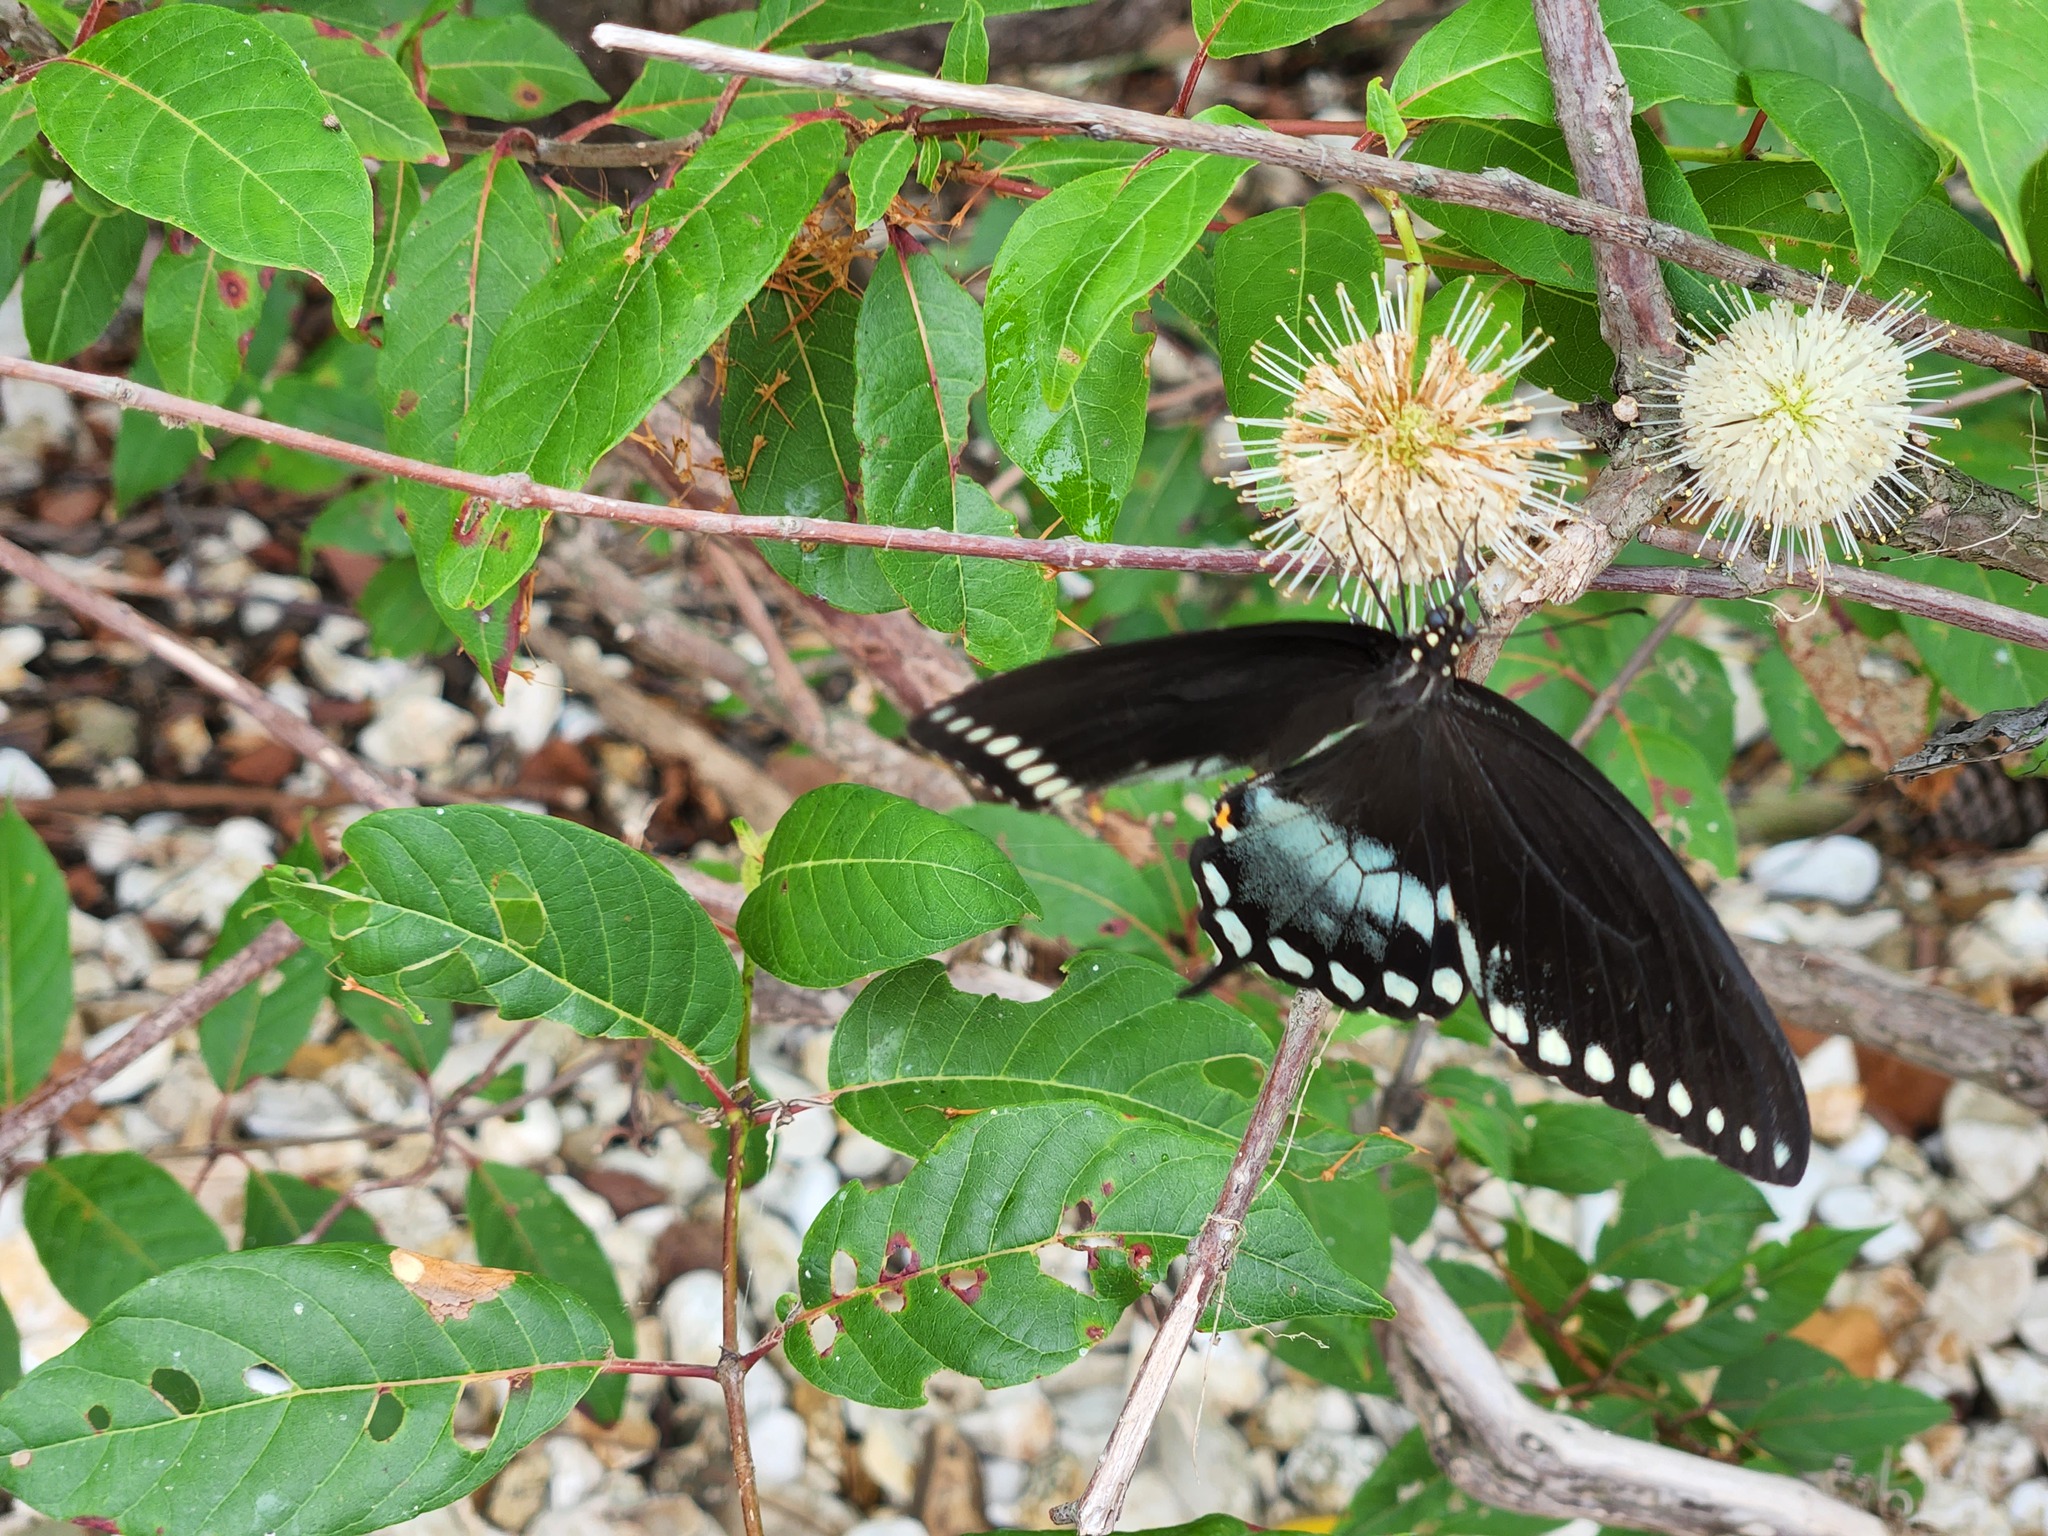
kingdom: Animalia
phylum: Arthropoda
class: Insecta
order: Lepidoptera
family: Papilionidae
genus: Papilio
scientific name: Papilio troilus
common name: Spicebush swallowtail
